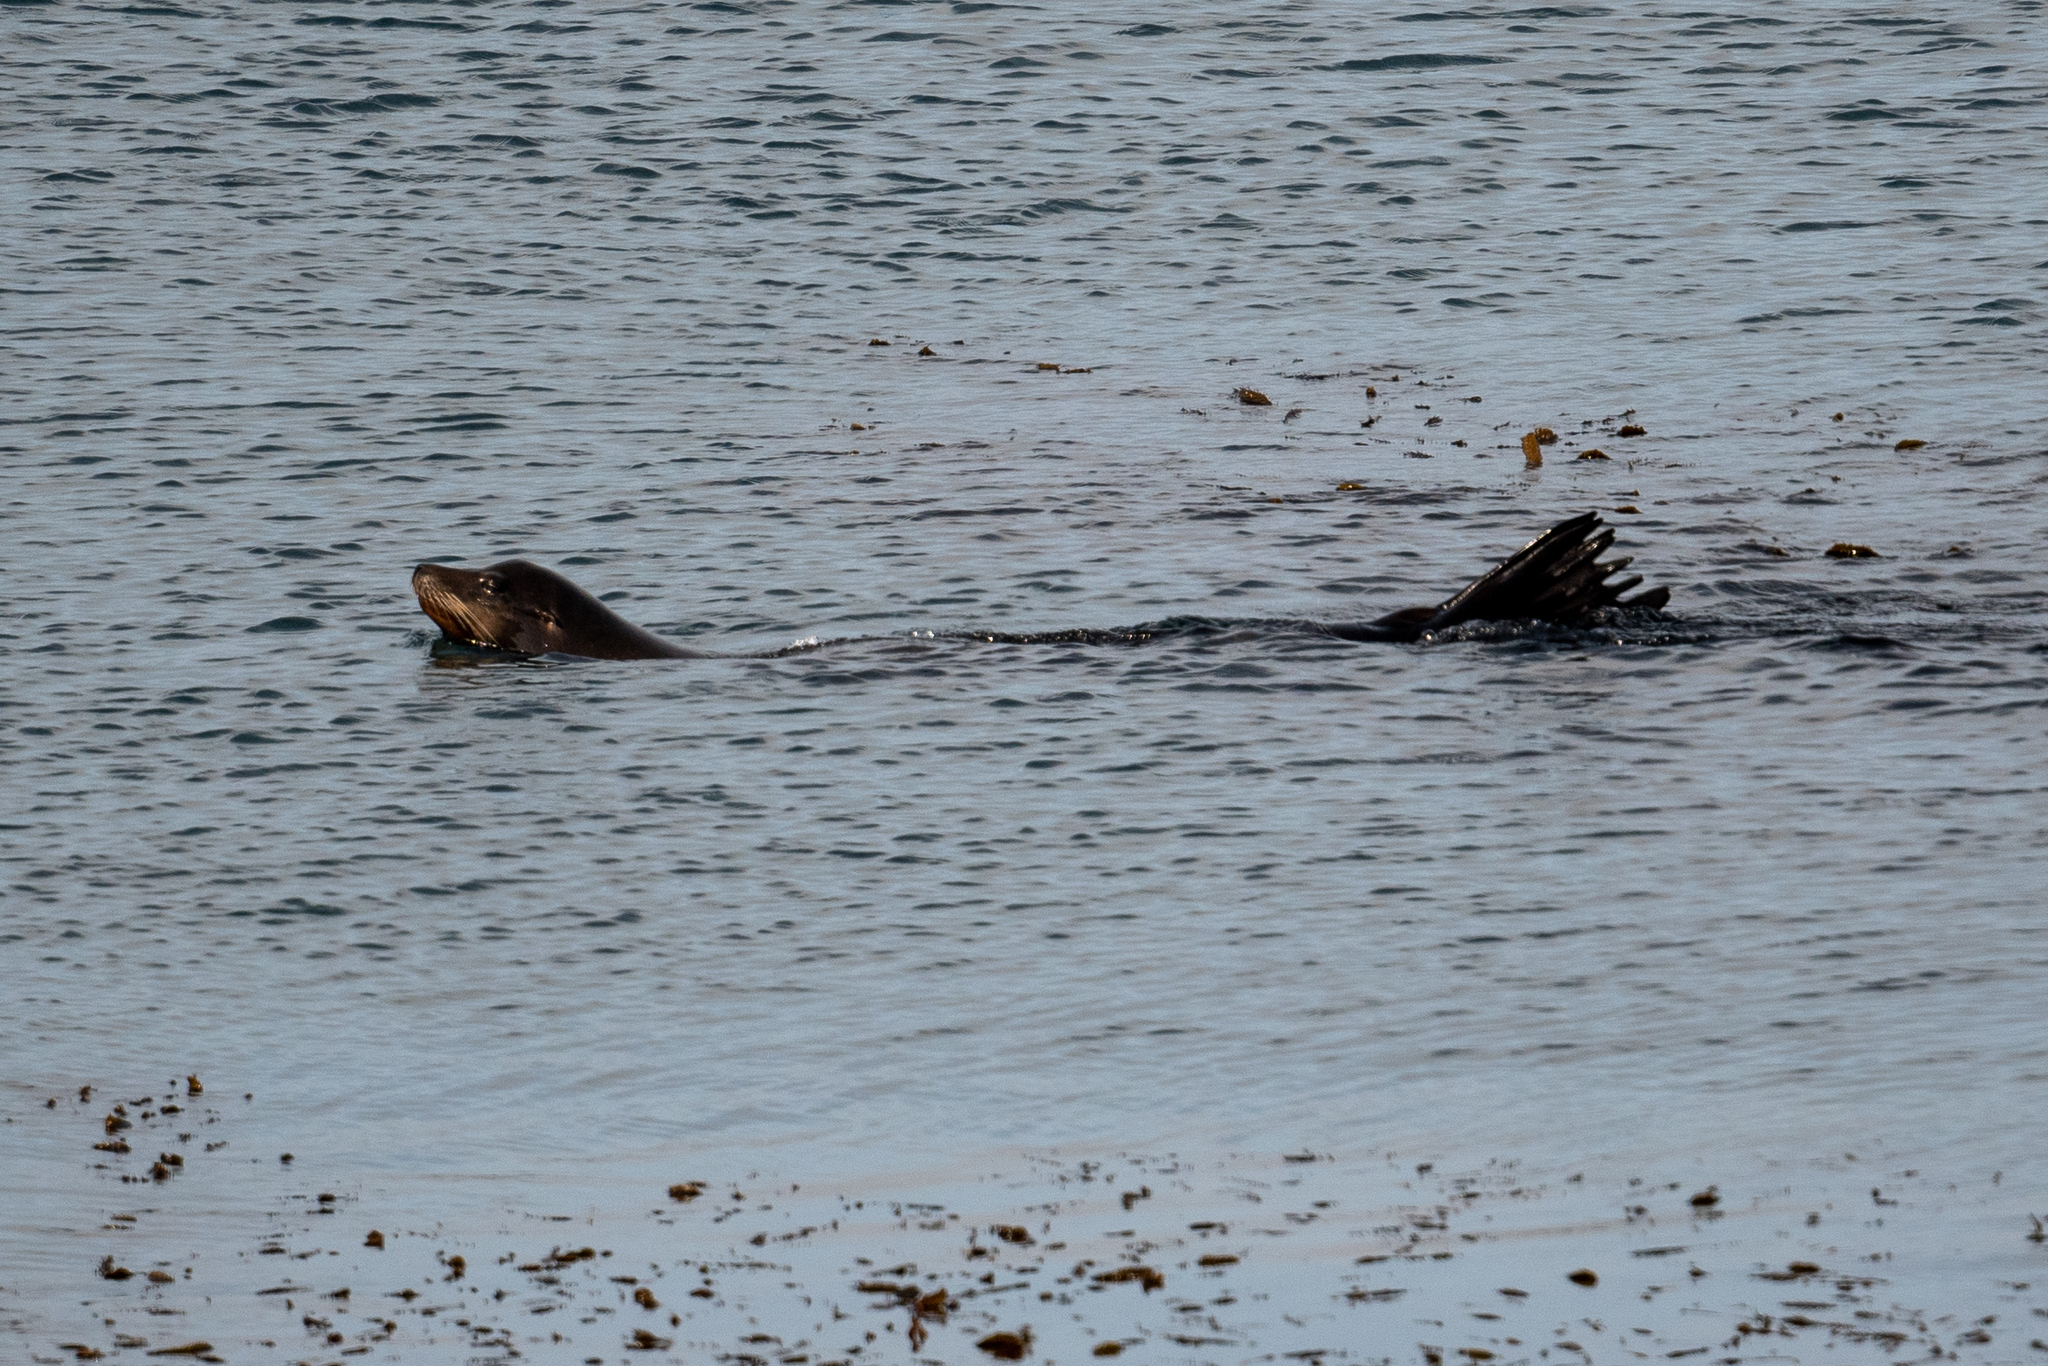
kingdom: Animalia
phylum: Chordata
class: Mammalia
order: Carnivora
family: Otariidae
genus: Zalophus
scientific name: Zalophus californianus
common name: California sea lion
